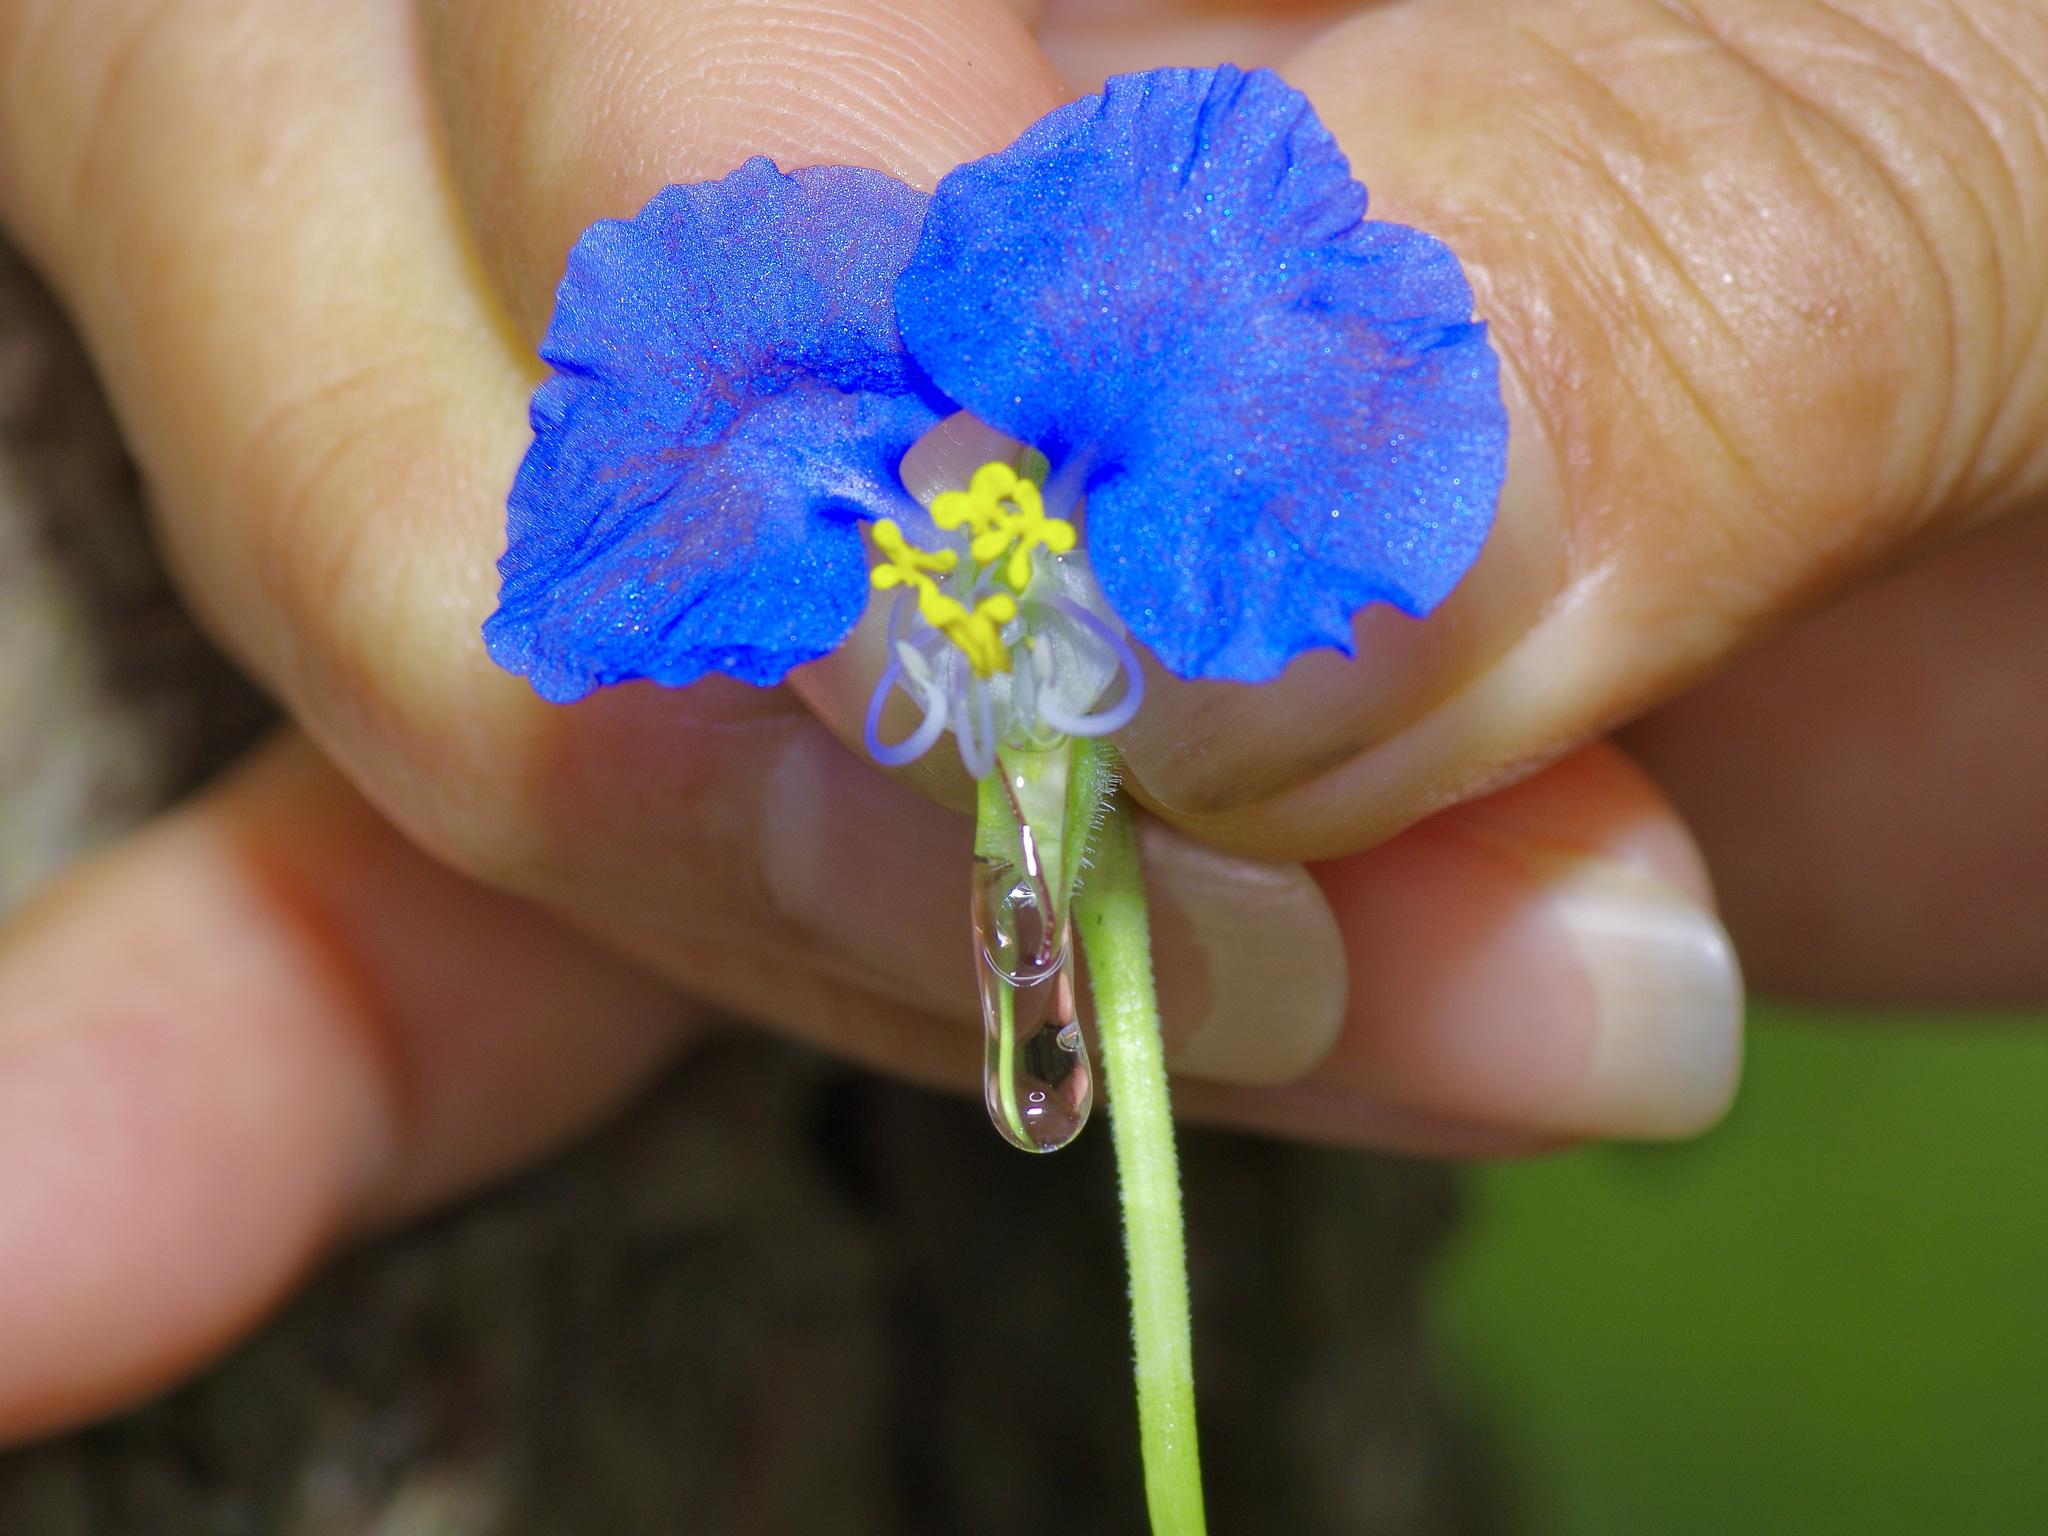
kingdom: Plantae
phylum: Tracheophyta
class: Liliopsida
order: Commelinales
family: Commelinaceae
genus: Commelina
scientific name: Commelina erecta
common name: Blousel blommetjie
